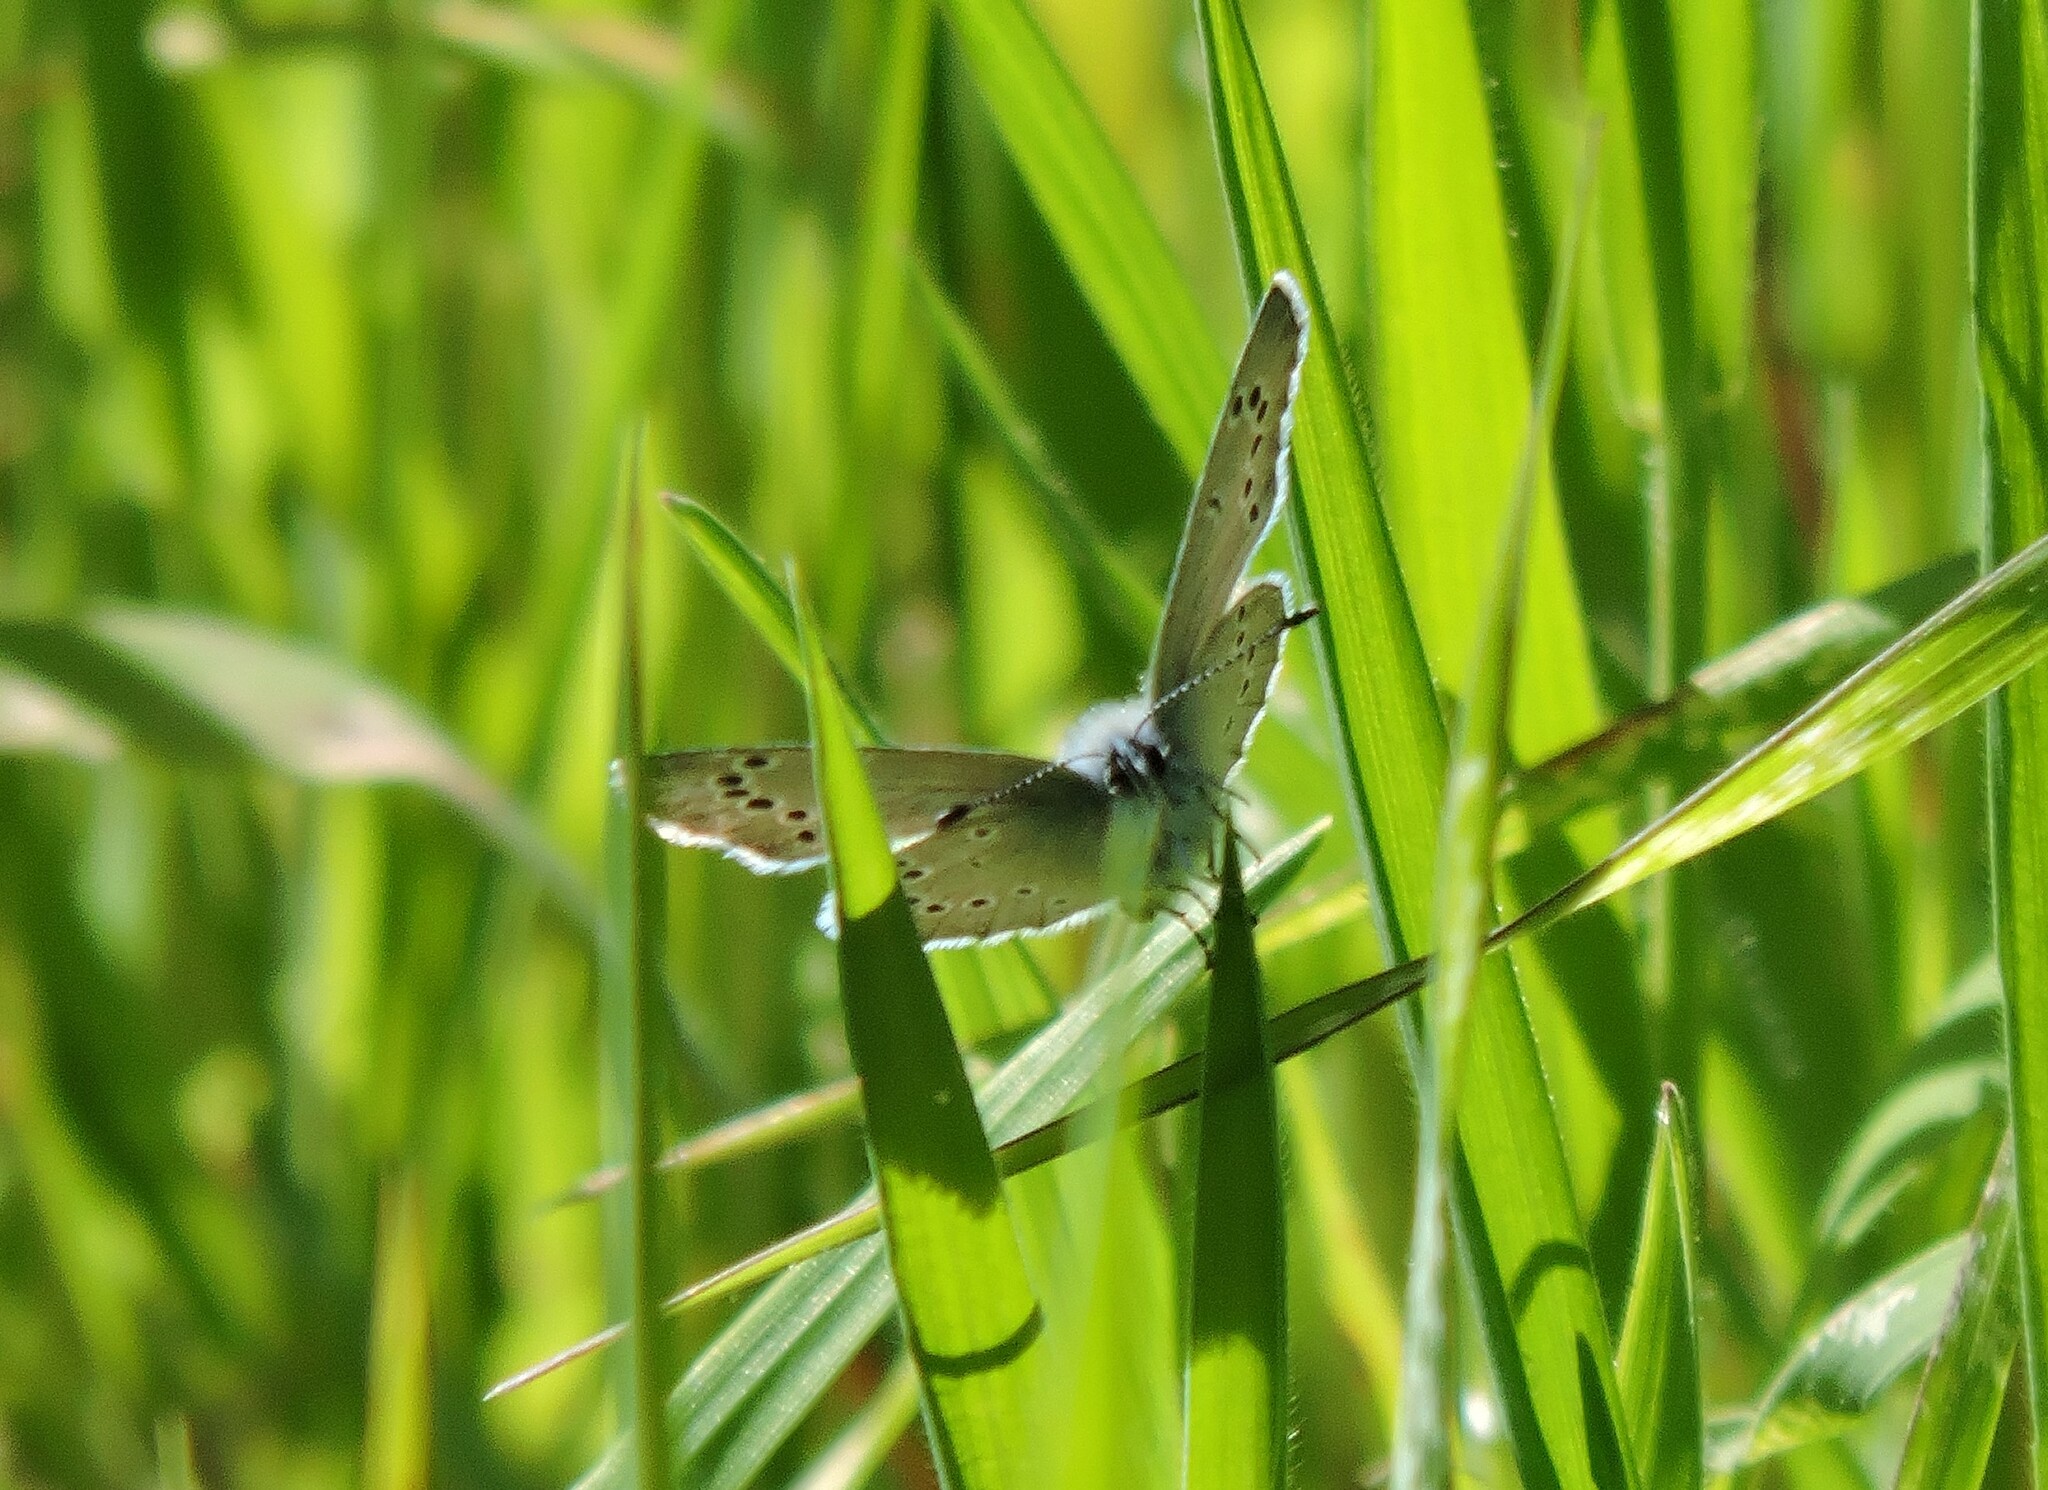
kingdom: Animalia
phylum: Arthropoda
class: Insecta
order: Lepidoptera
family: Lycaenidae
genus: Glaucopsyche
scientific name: Glaucopsyche lygdamus
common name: Silvery blue
